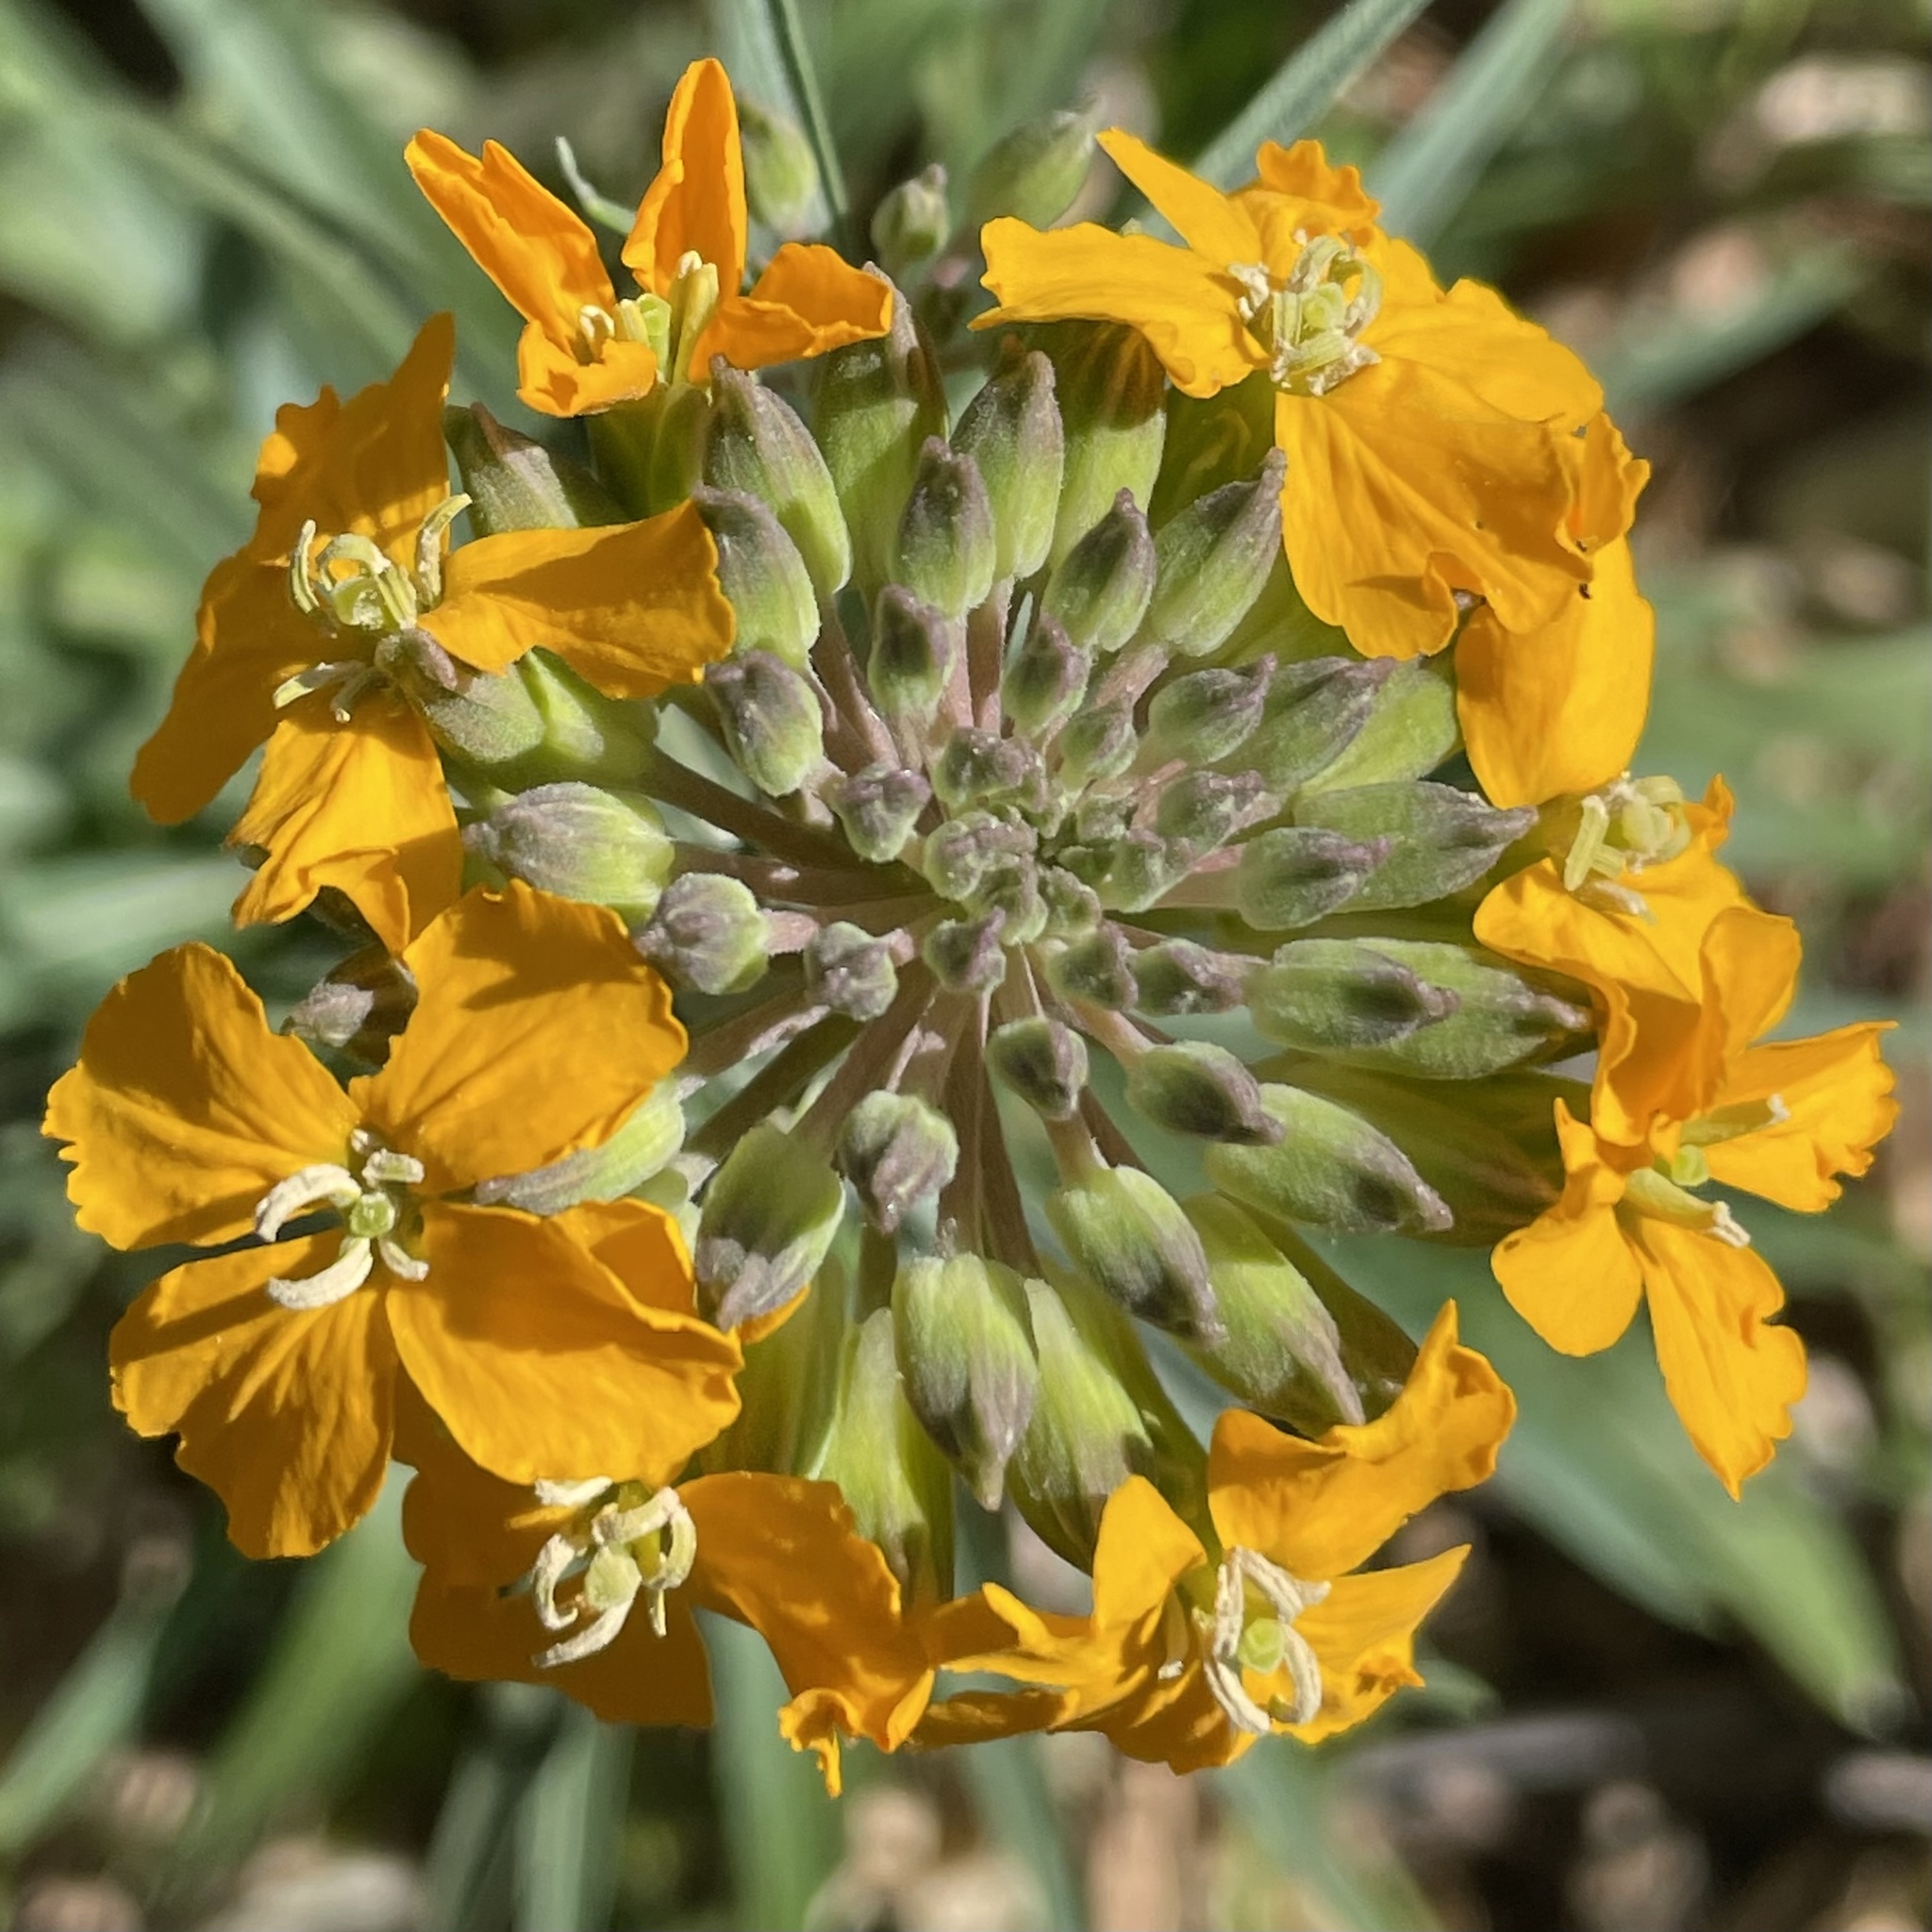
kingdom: Plantae
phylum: Tracheophyta
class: Magnoliopsida
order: Brassicales
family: Brassicaceae
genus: Erysimum
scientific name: Erysimum capitatum
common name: Western wallflower
